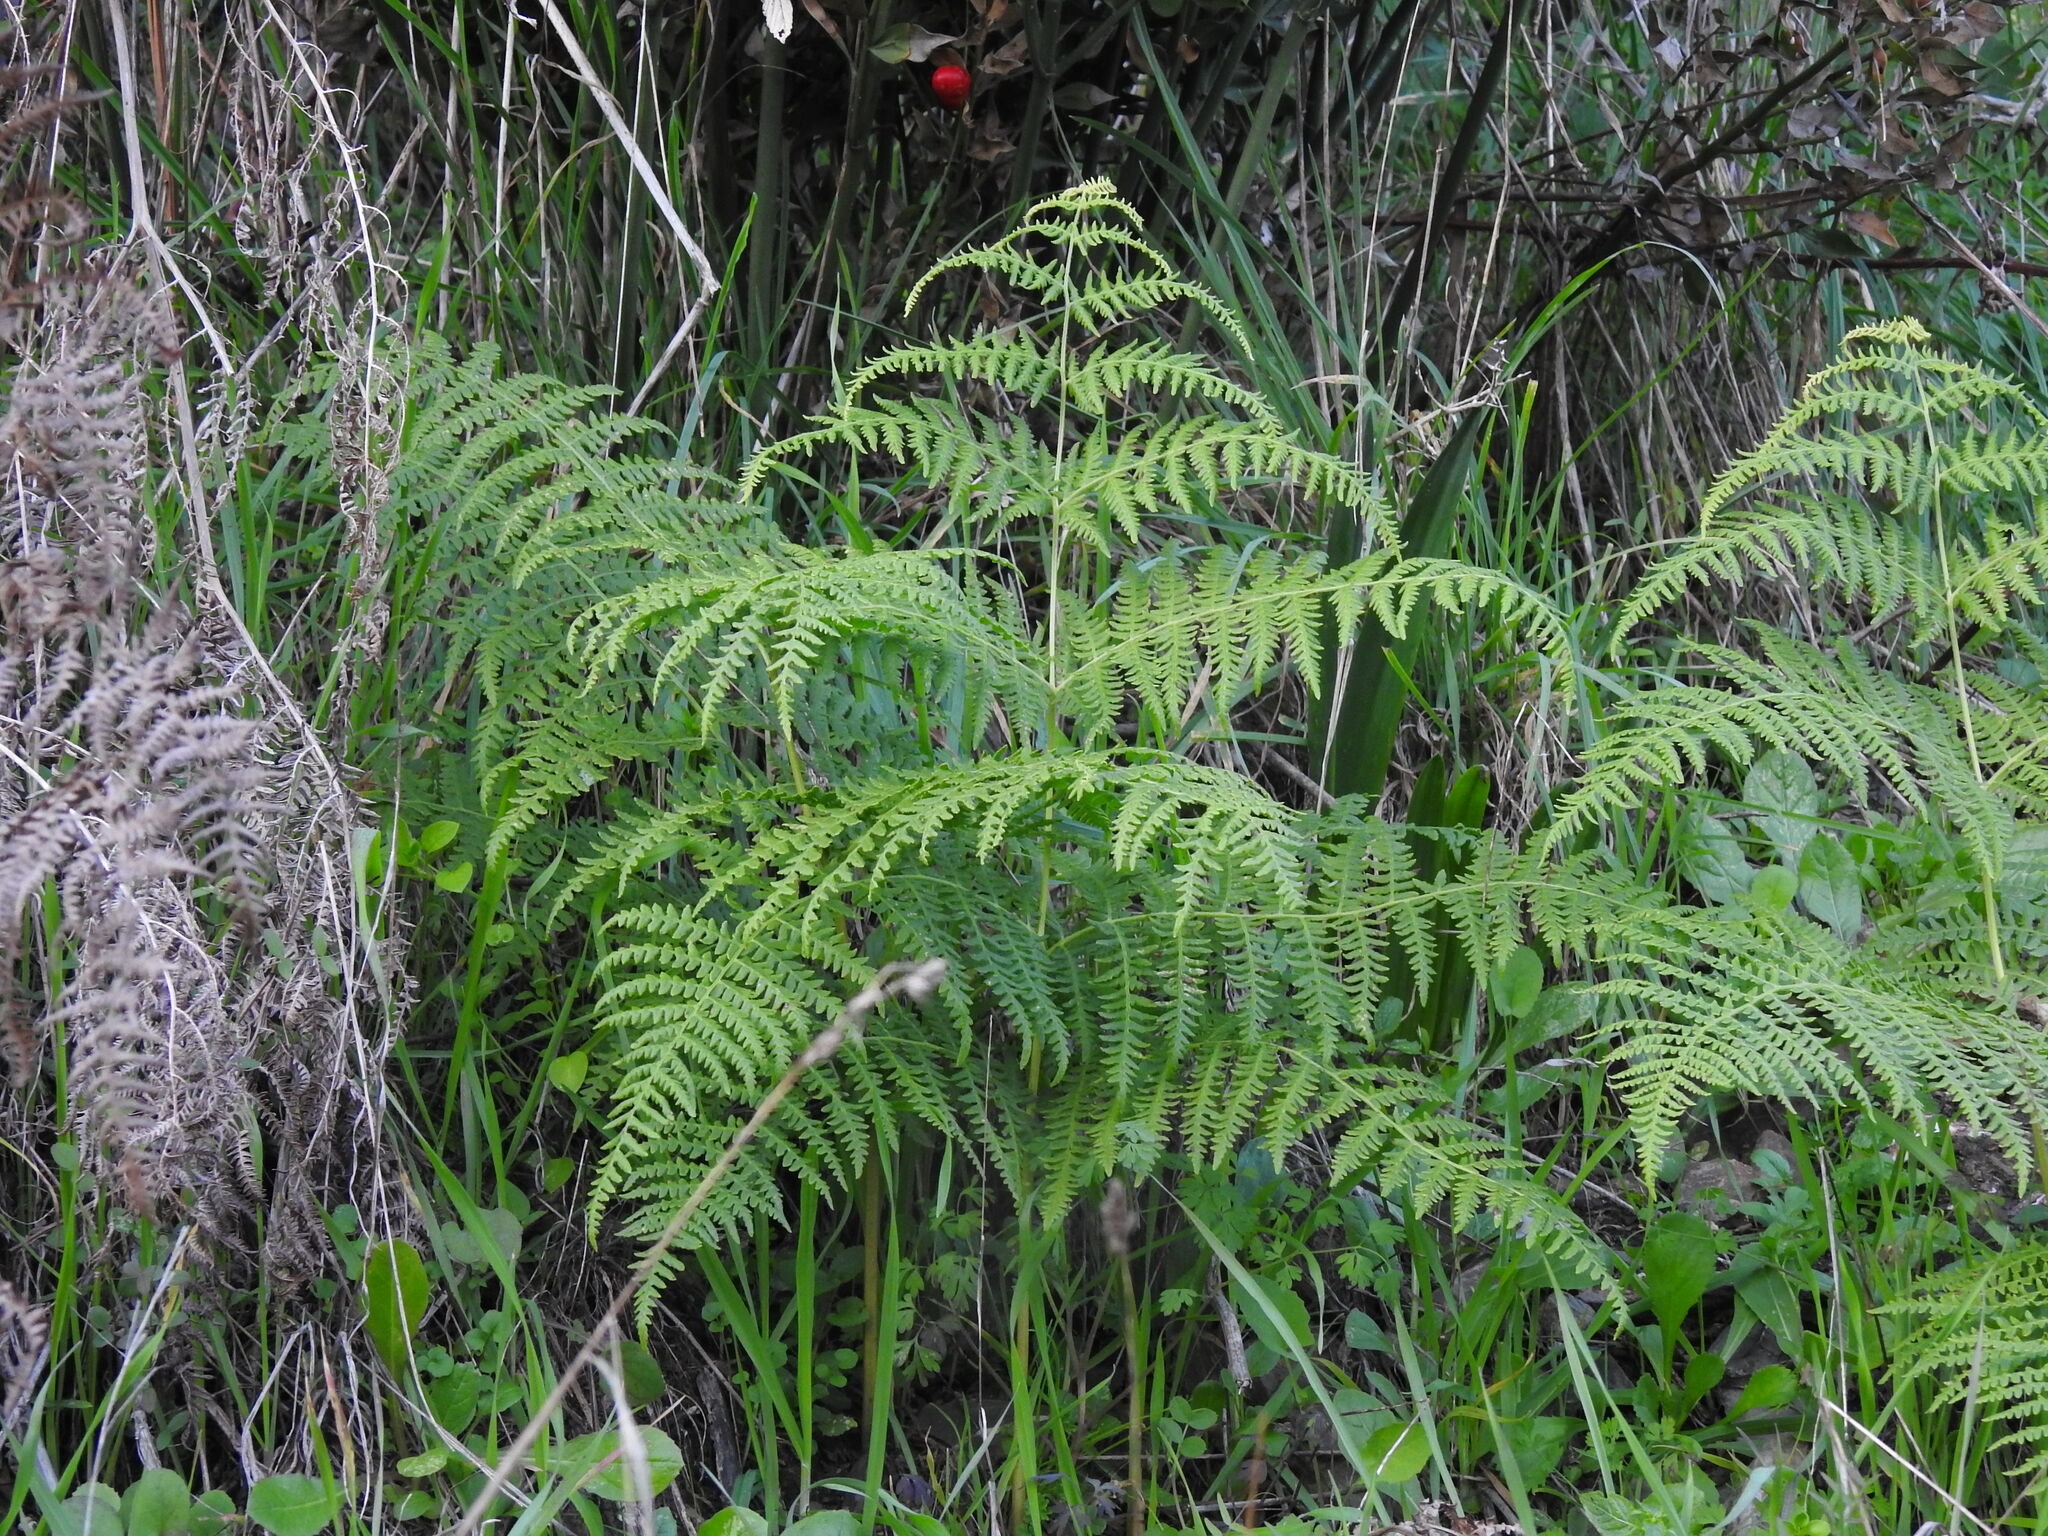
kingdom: Plantae
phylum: Tracheophyta
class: Polypodiopsida
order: Polypodiales
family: Dennstaedtiaceae
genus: Pteridium
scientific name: Pteridium aquilinum
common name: Bracken
